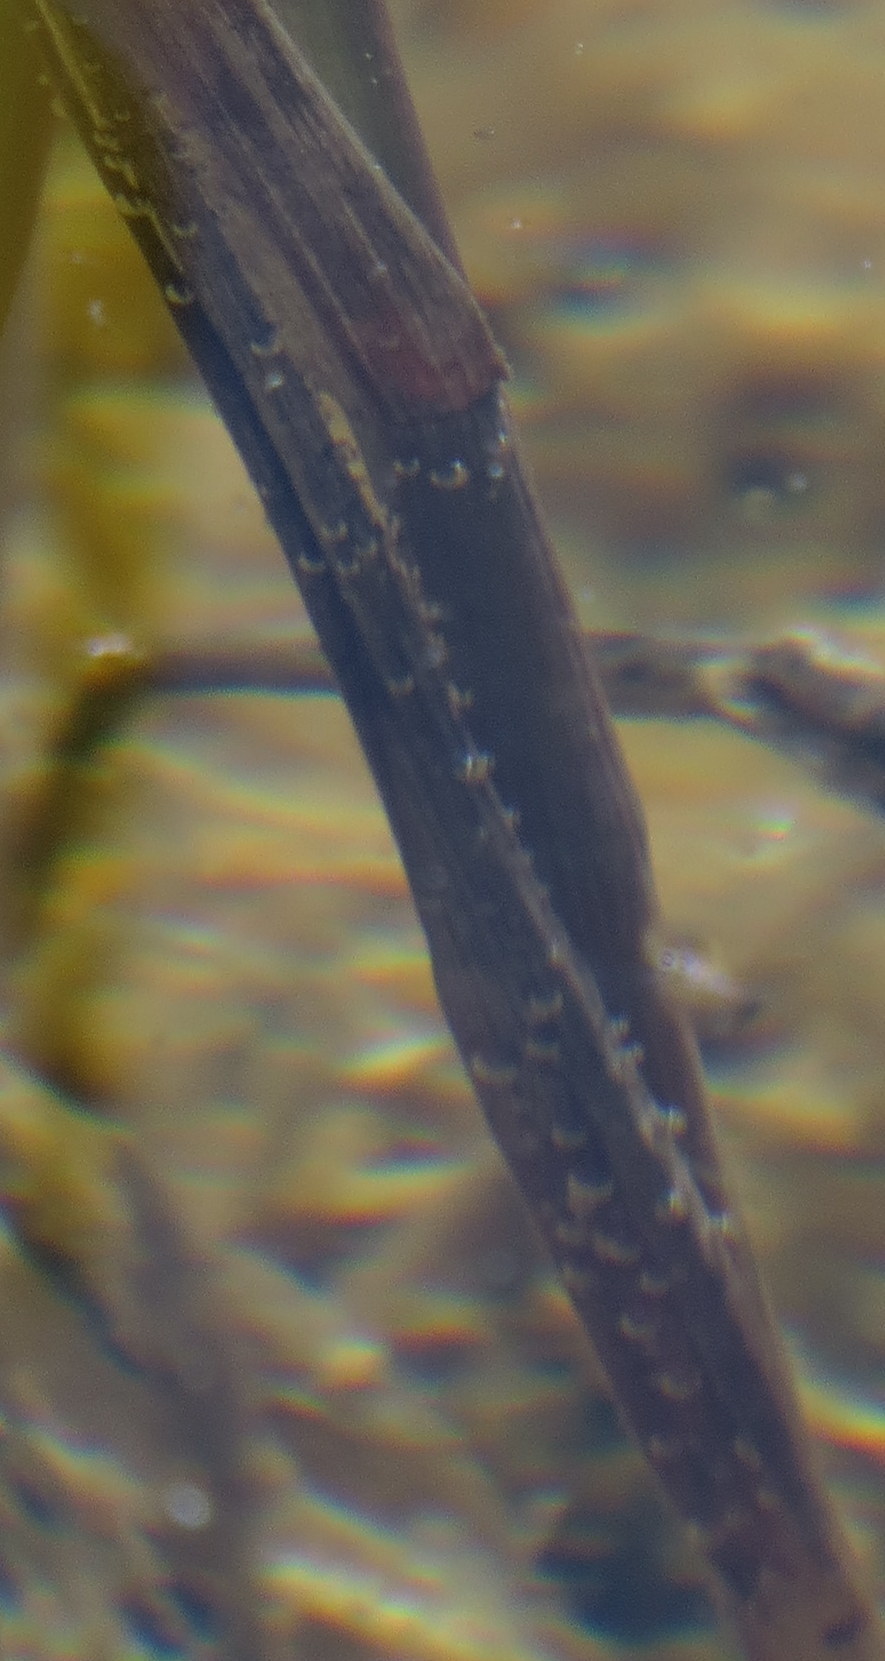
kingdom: Animalia
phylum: Arthropoda
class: Insecta
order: Odonata
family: Aeshnidae
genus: Anax
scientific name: Anax junius
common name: Common green darner
